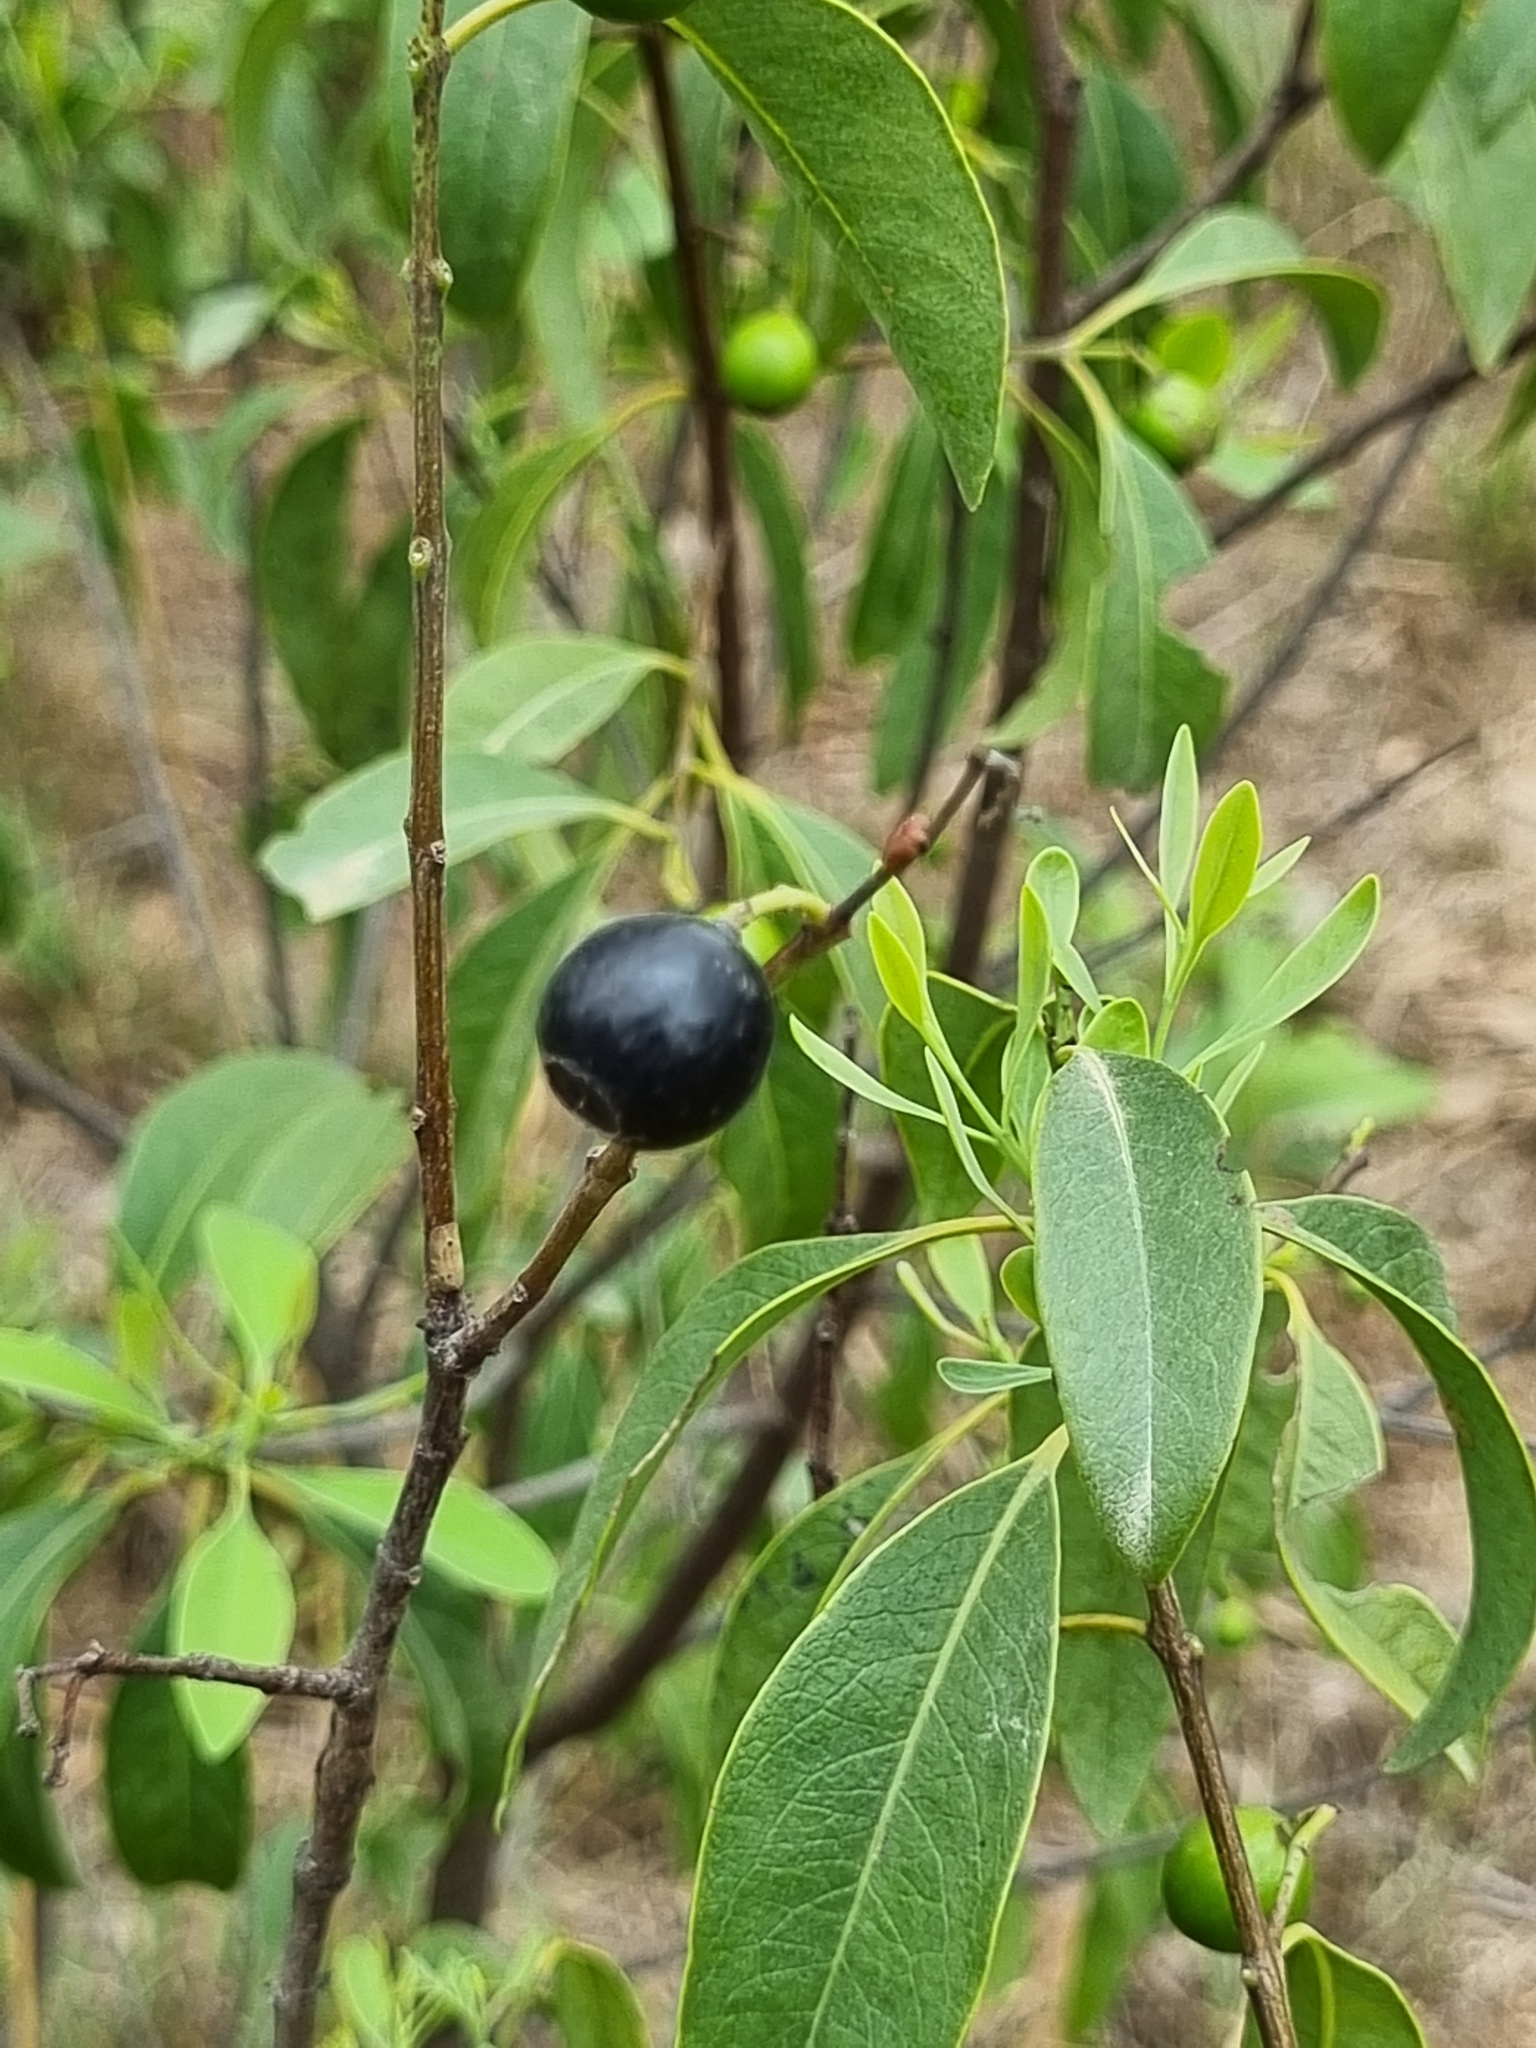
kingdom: Plantae
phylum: Tracheophyta
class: Magnoliopsida
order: Santalales
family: Santalaceae
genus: Santalum
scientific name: Santalum album
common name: Indian sandalwood
